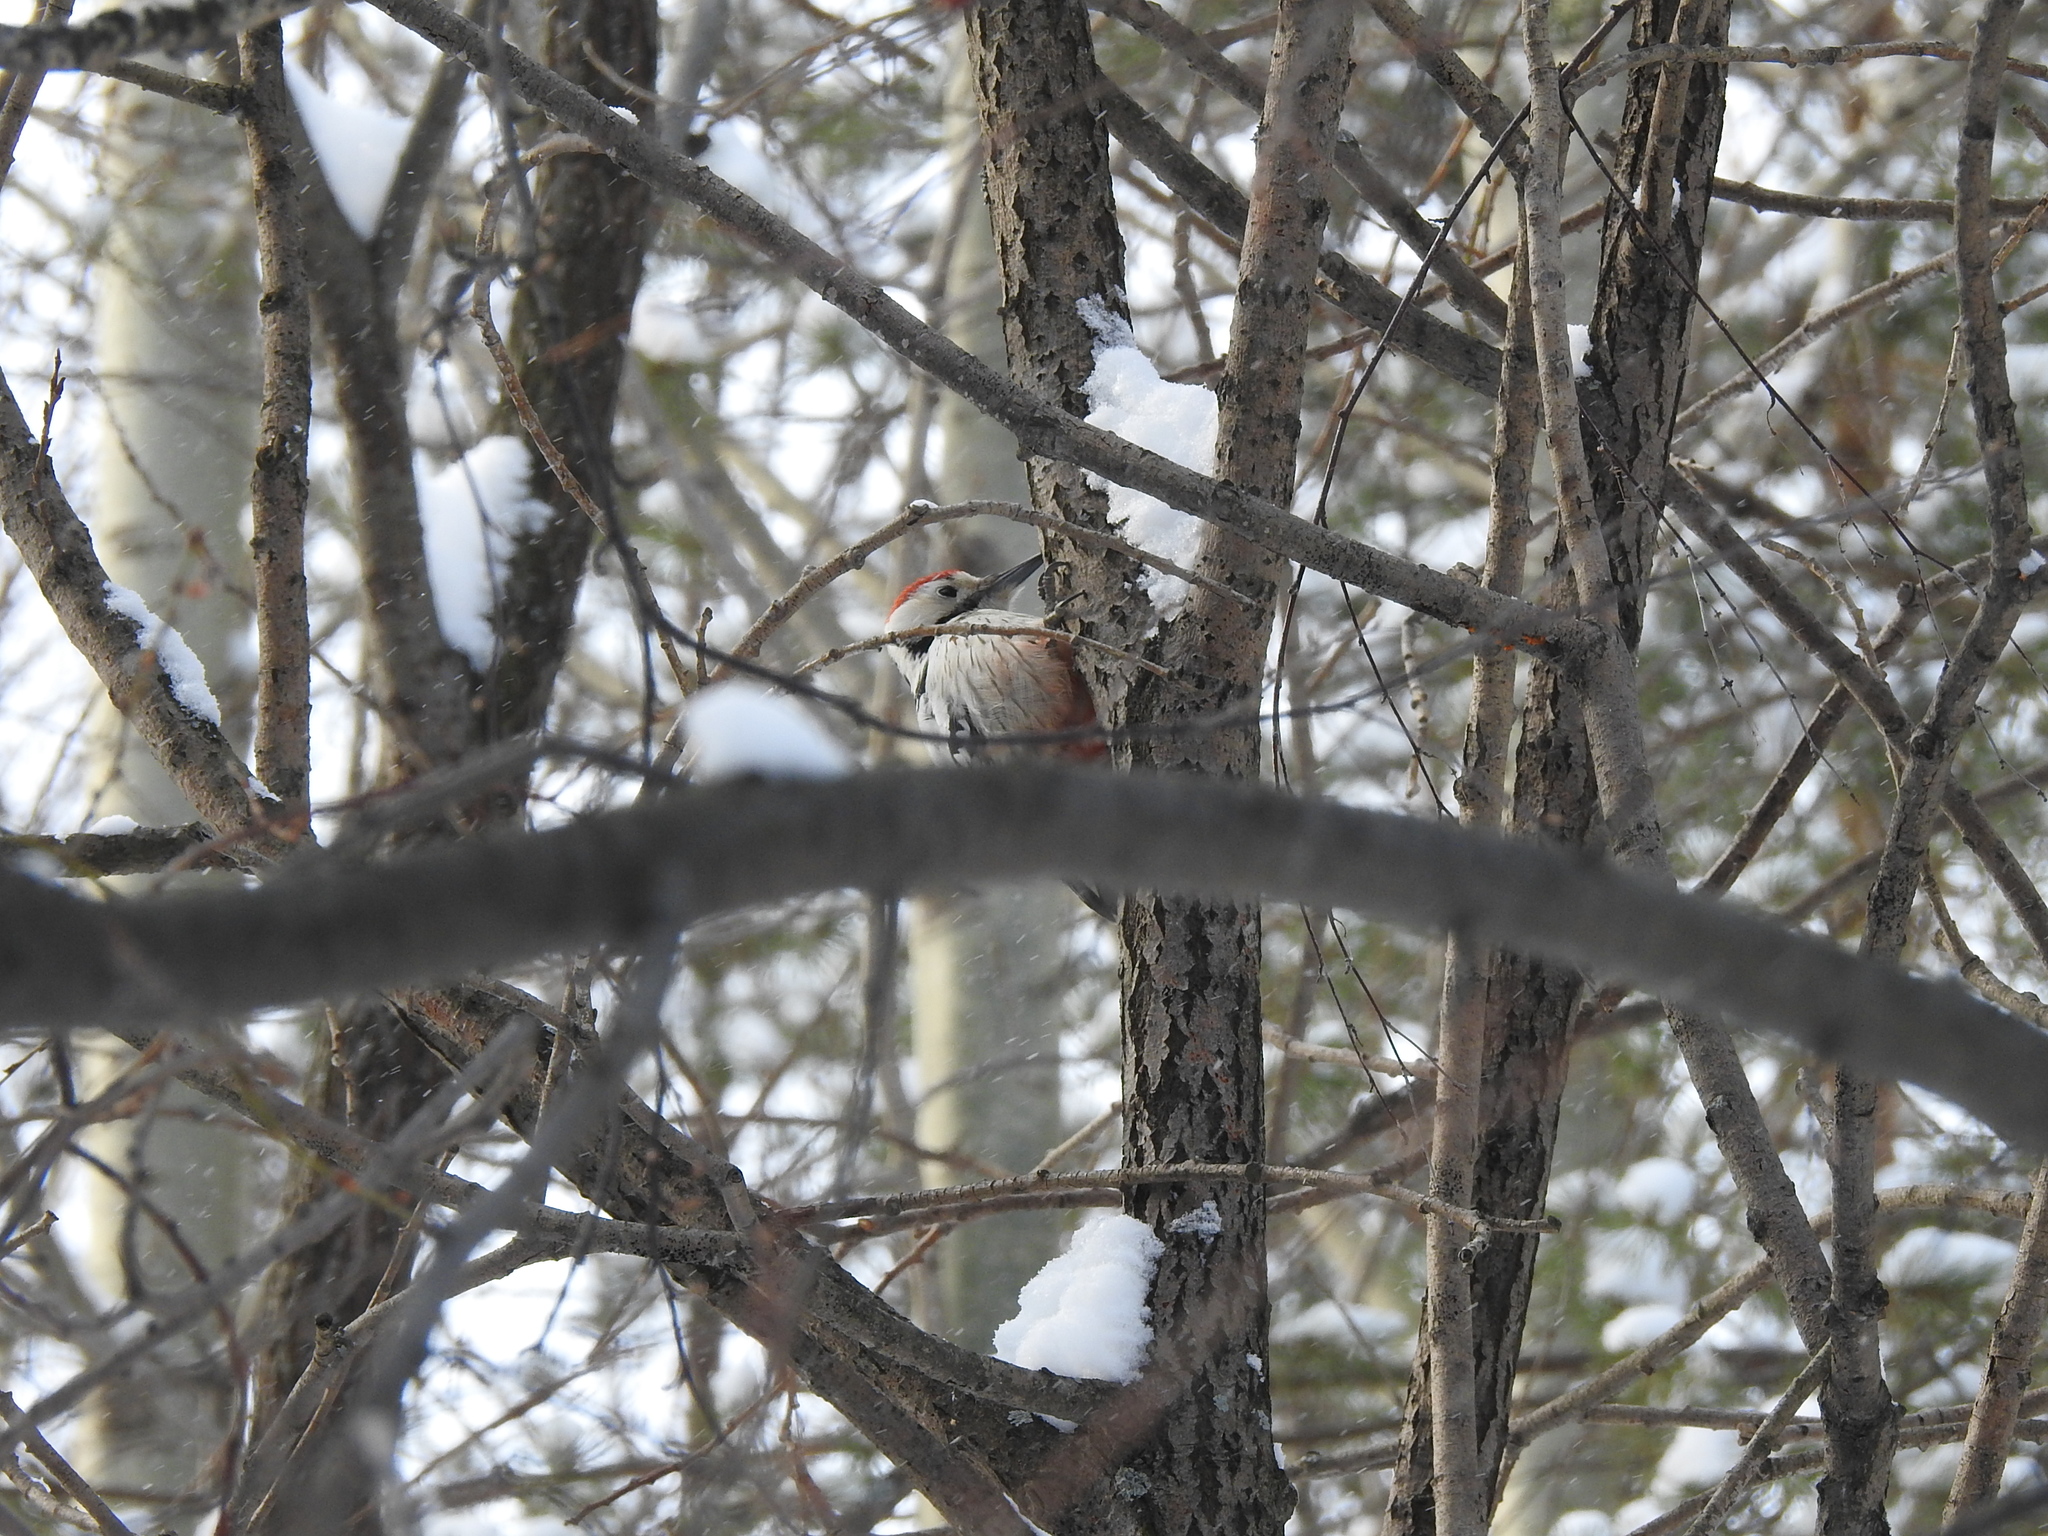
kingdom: Animalia
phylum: Chordata
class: Aves
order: Piciformes
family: Picidae
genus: Dendrocopos
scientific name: Dendrocopos leucotos
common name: White-backed woodpecker
